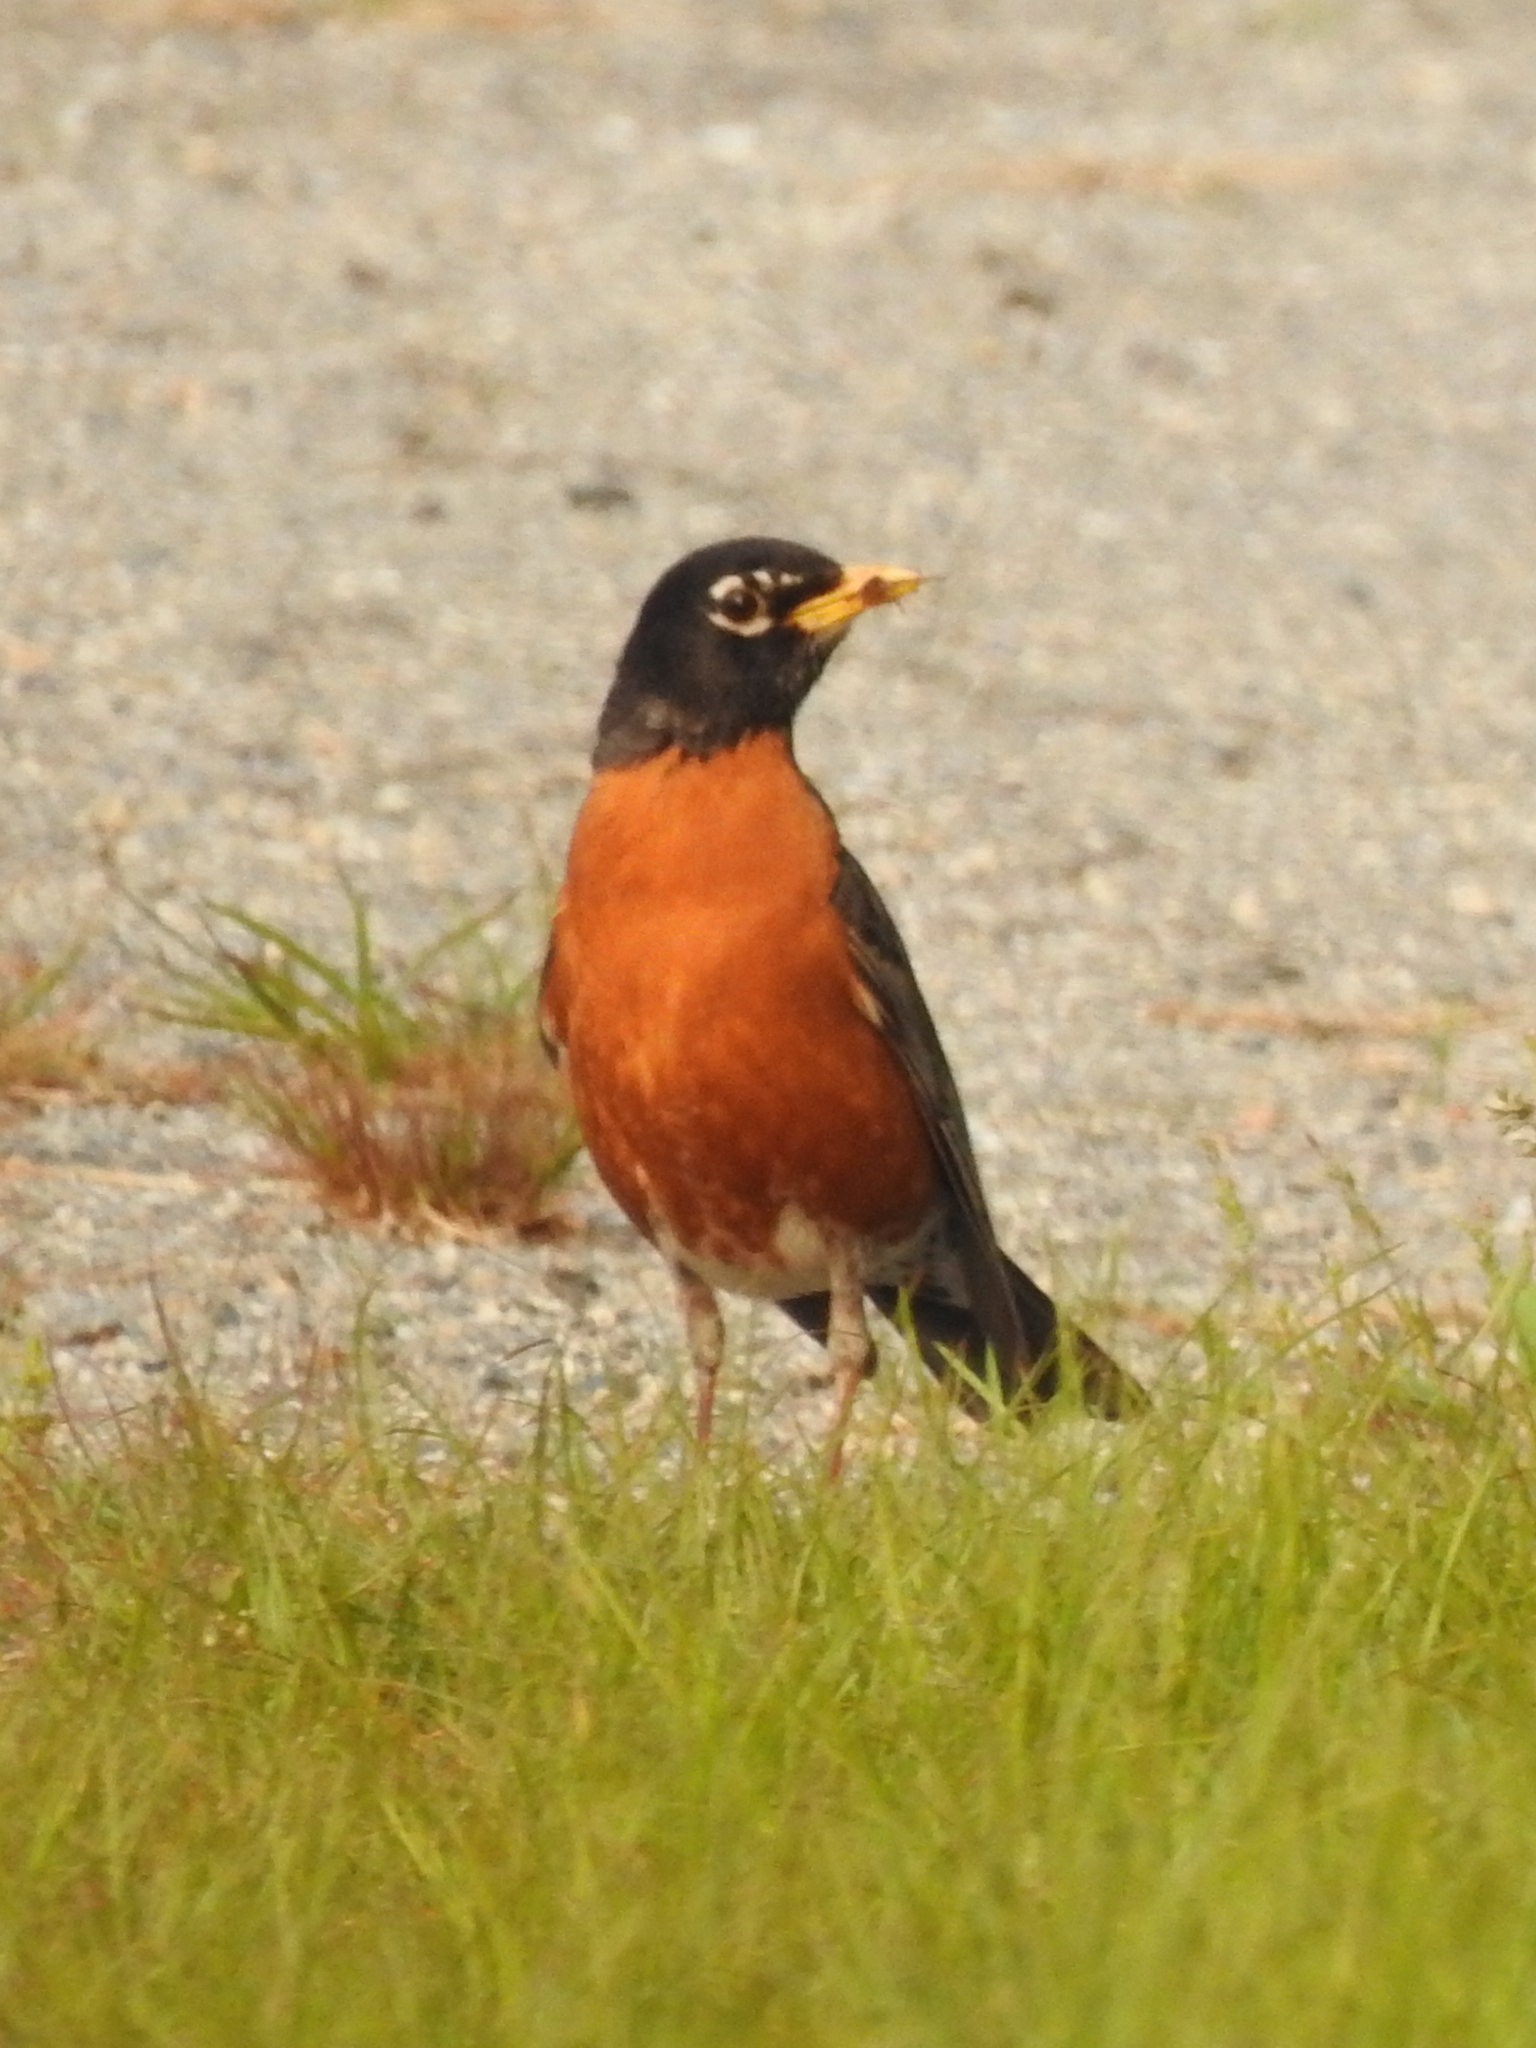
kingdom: Animalia
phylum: Chordata
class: Aves
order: Passeriformes
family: Turdidae
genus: Turdus
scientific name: Turdus migratorius
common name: American robin
